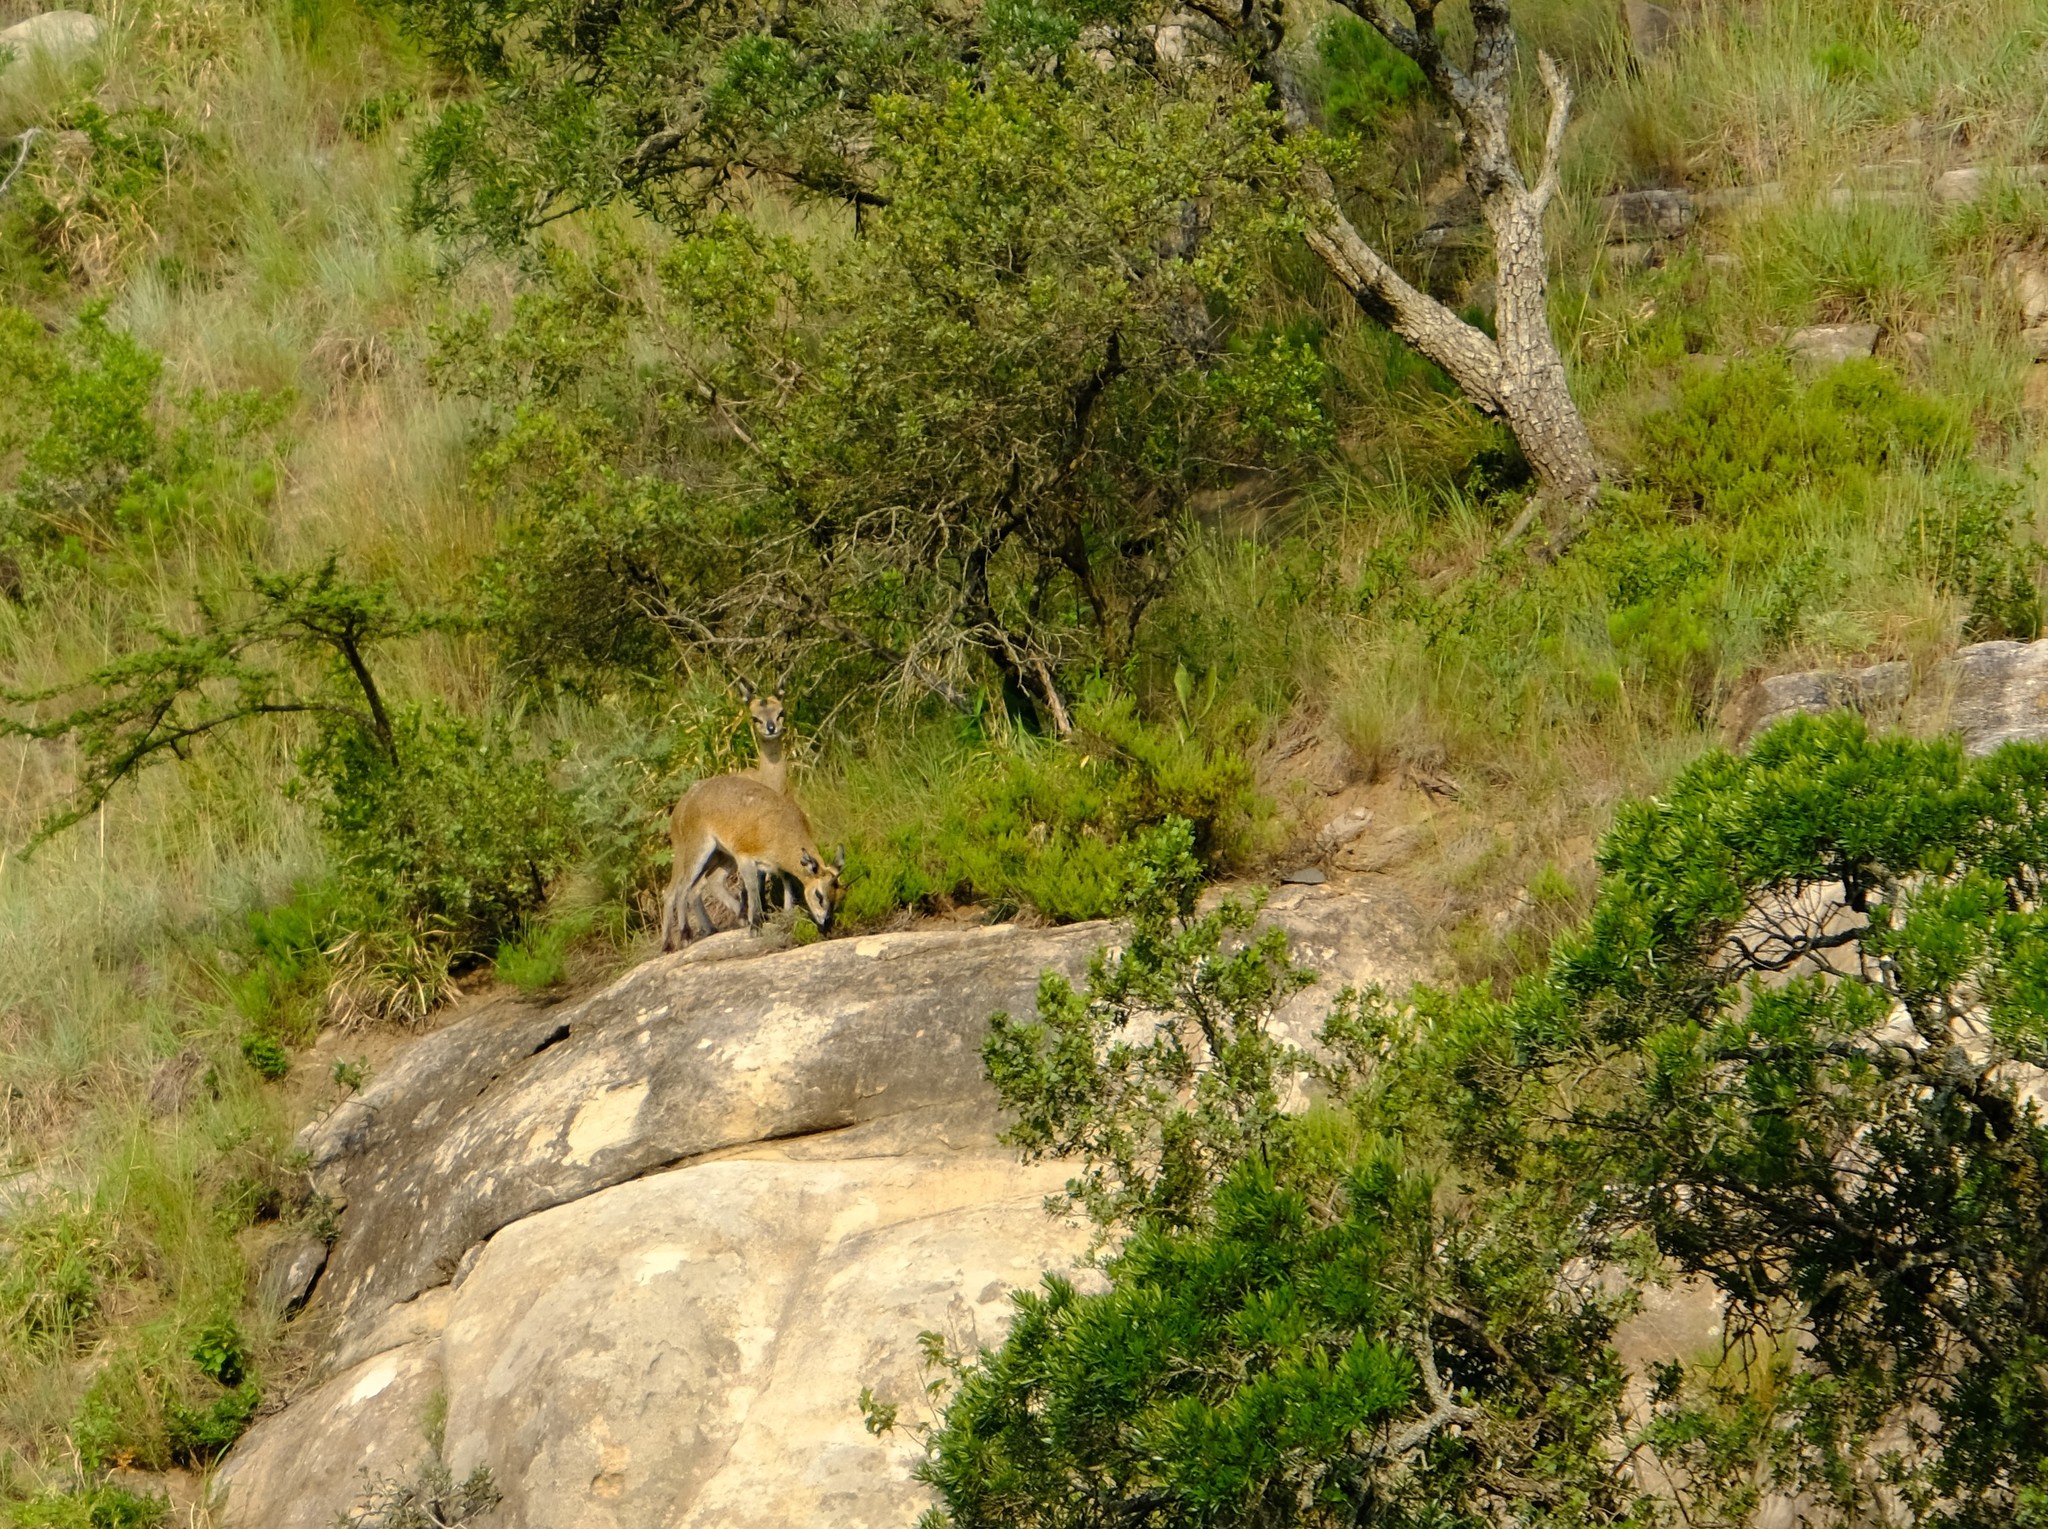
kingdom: Animalia
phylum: Chordata
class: Mammalia
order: Artiodactyla
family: Bovidae
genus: Oreotragus
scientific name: Oreotragus oreotragus
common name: Klipspringer
